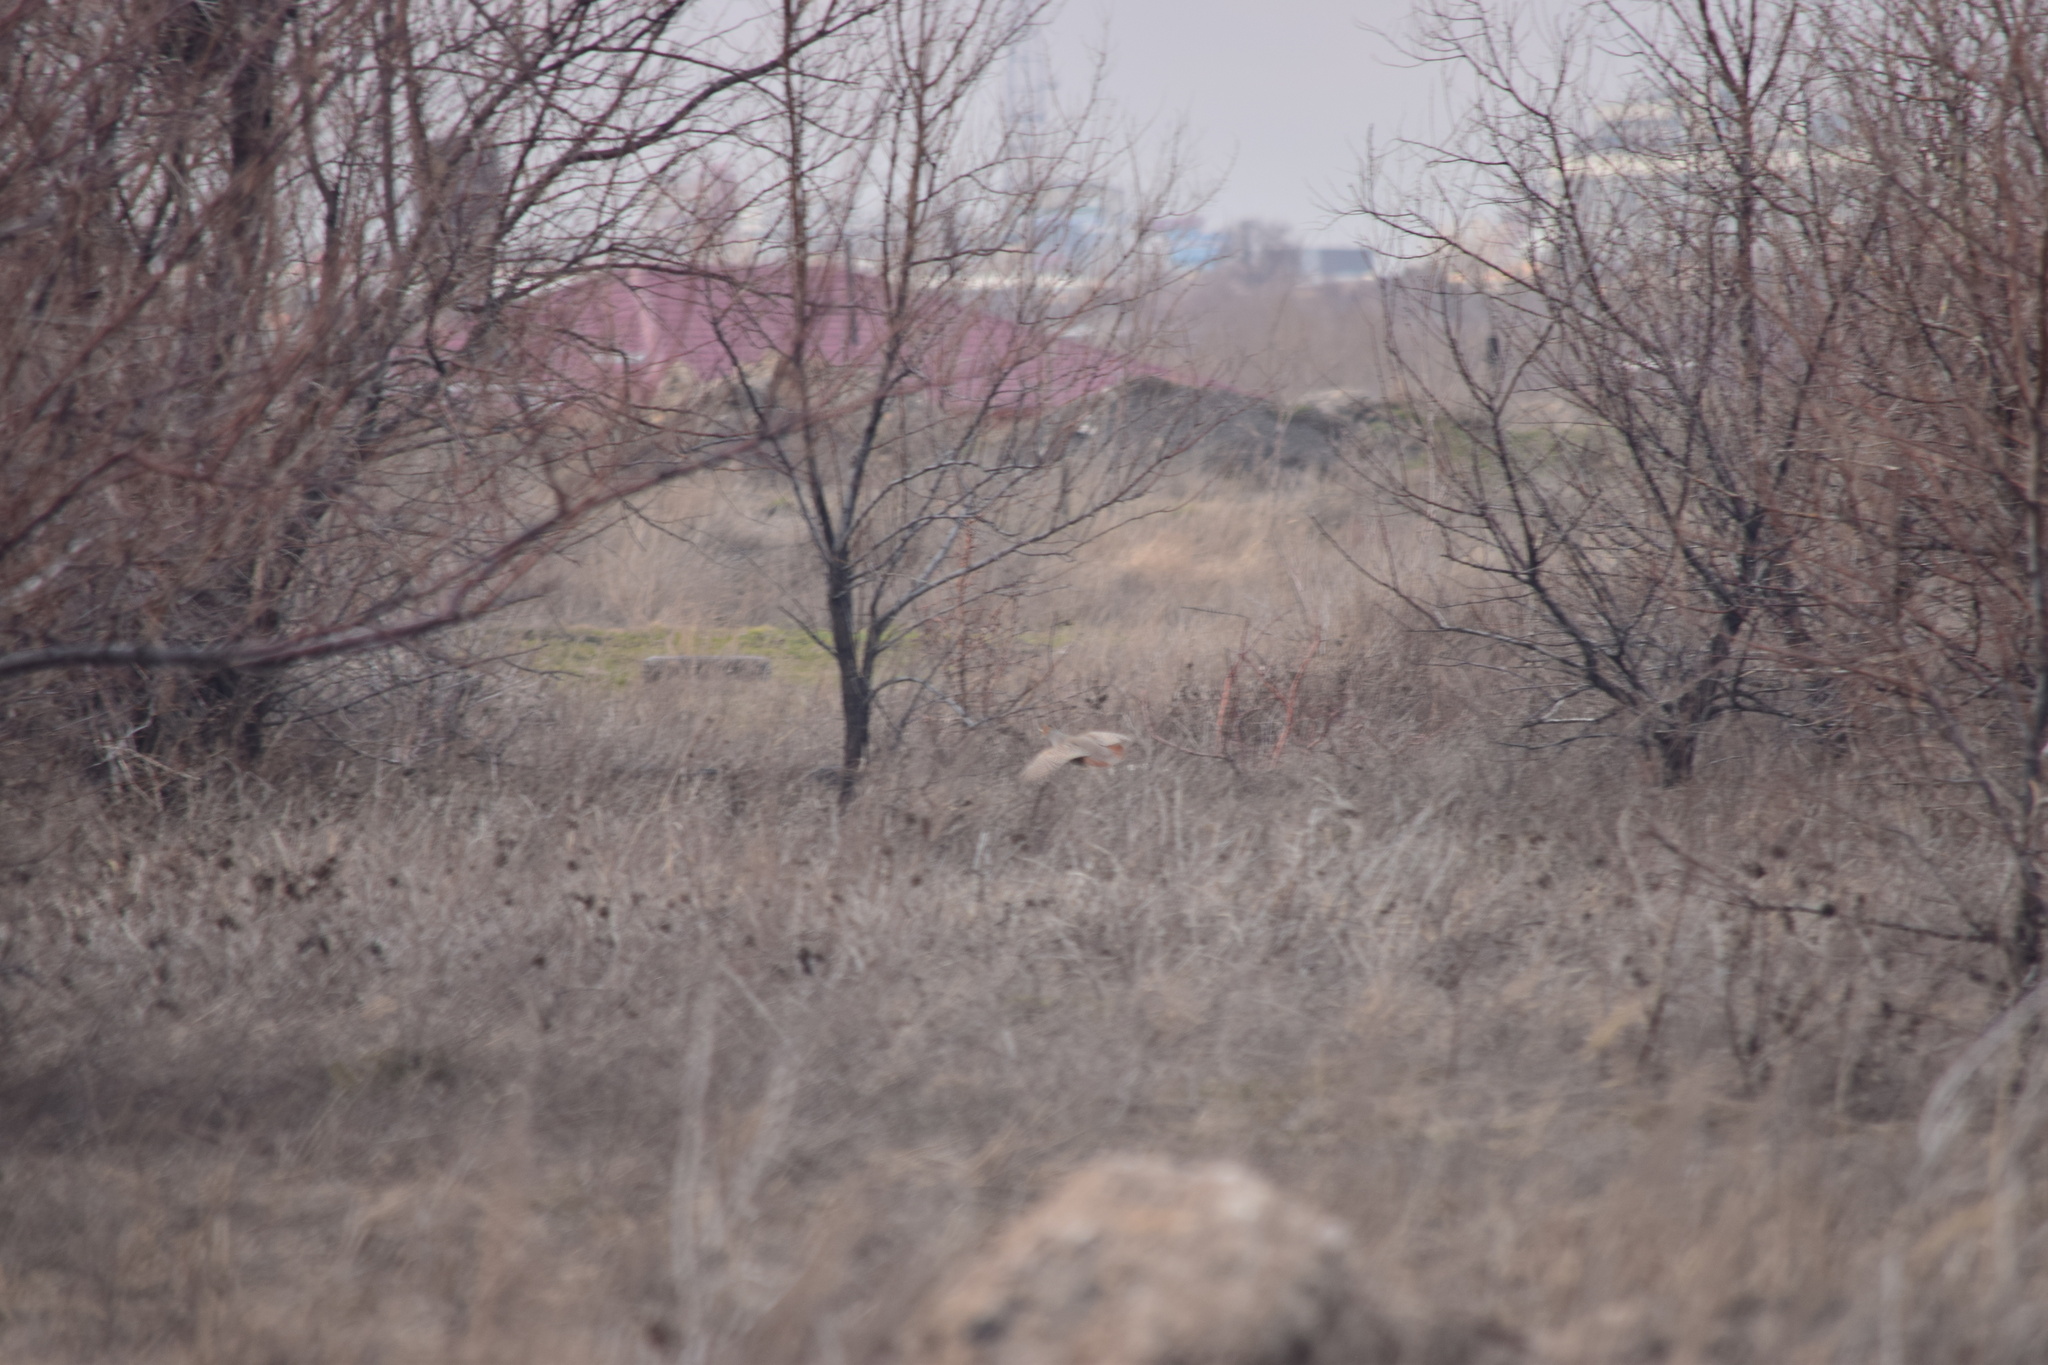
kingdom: Animalia
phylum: Chordata
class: Aves
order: Galliformes
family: Phasianidae
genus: Perdix
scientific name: Perdix perdix
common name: Grey partridge
